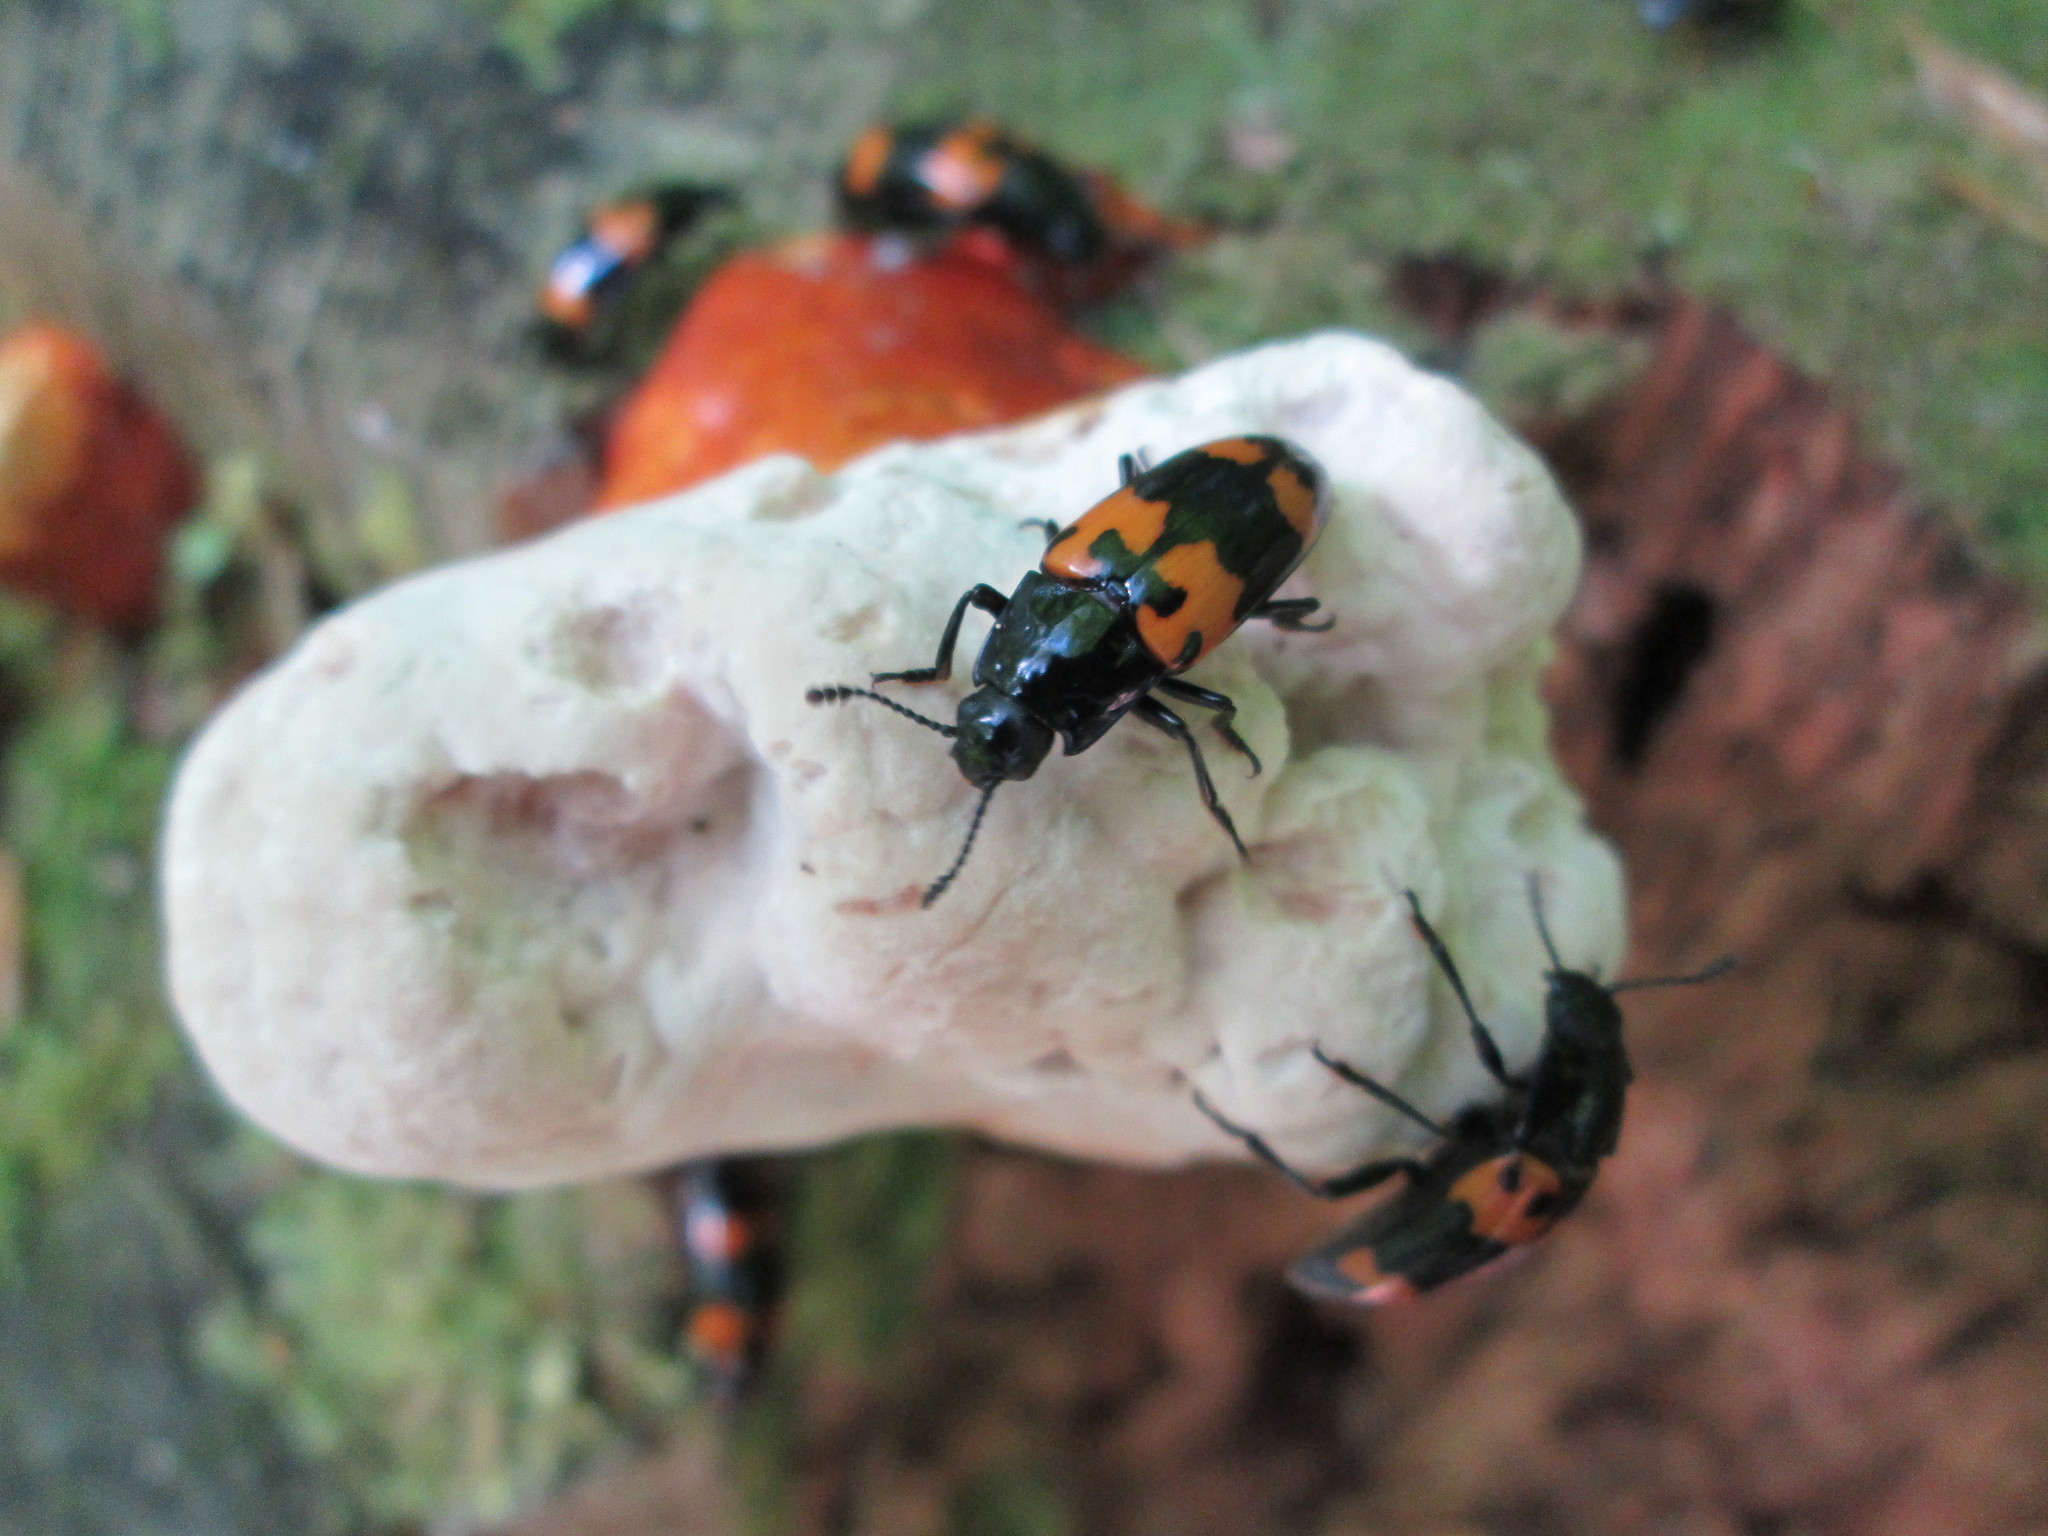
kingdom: Animalia
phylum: Arthropoda
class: Insecta
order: Coleoptera
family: Erotylidae
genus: Megalodacne
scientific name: Megalodacne heros
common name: Pleasing fungus beetle
